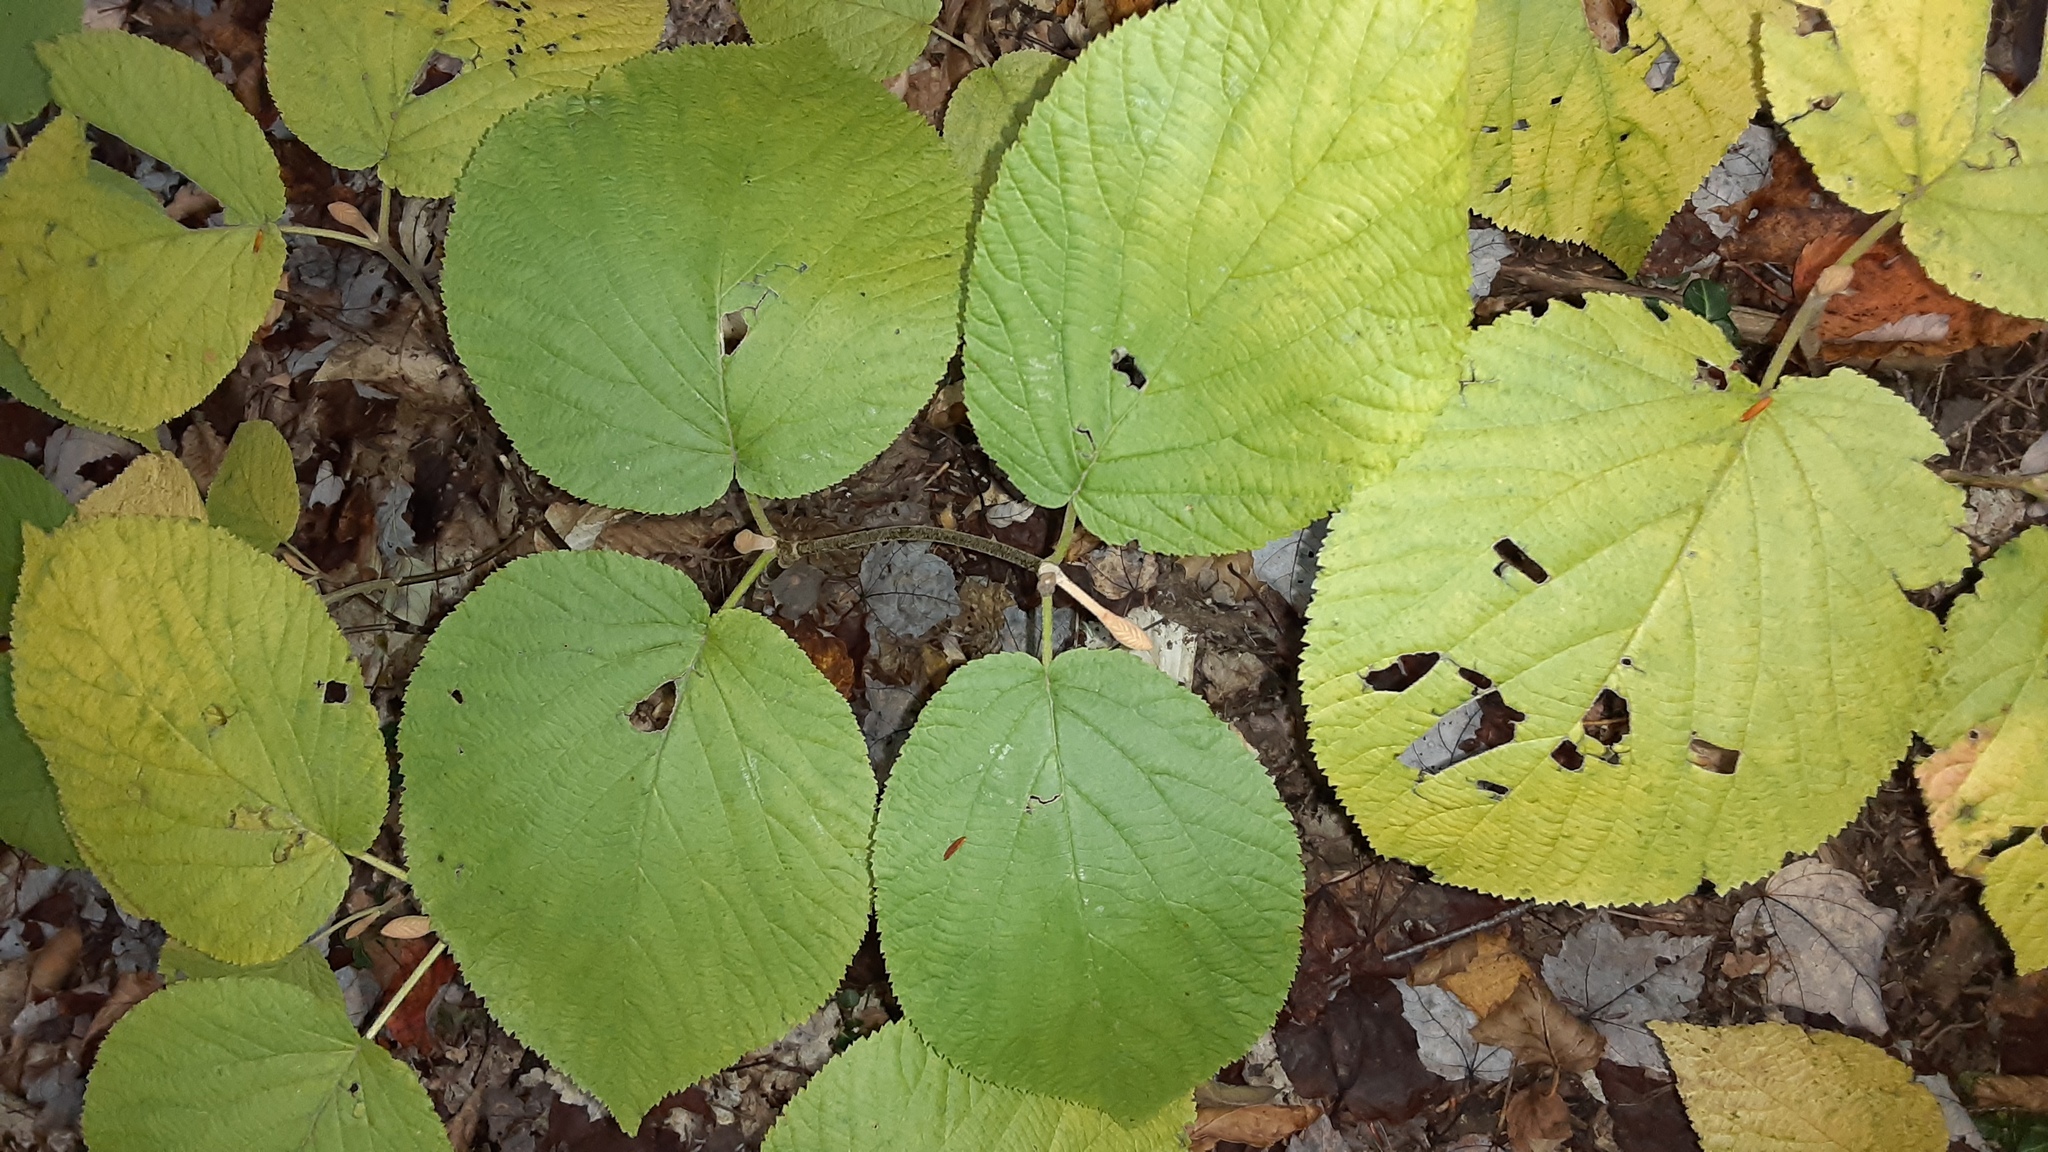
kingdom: Plantae
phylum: Tracheophyta
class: Magnoliopsida
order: Dipsacales
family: Viburnaceae
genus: Viburnum
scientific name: Viburnum lantanoides
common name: Hobblebush
